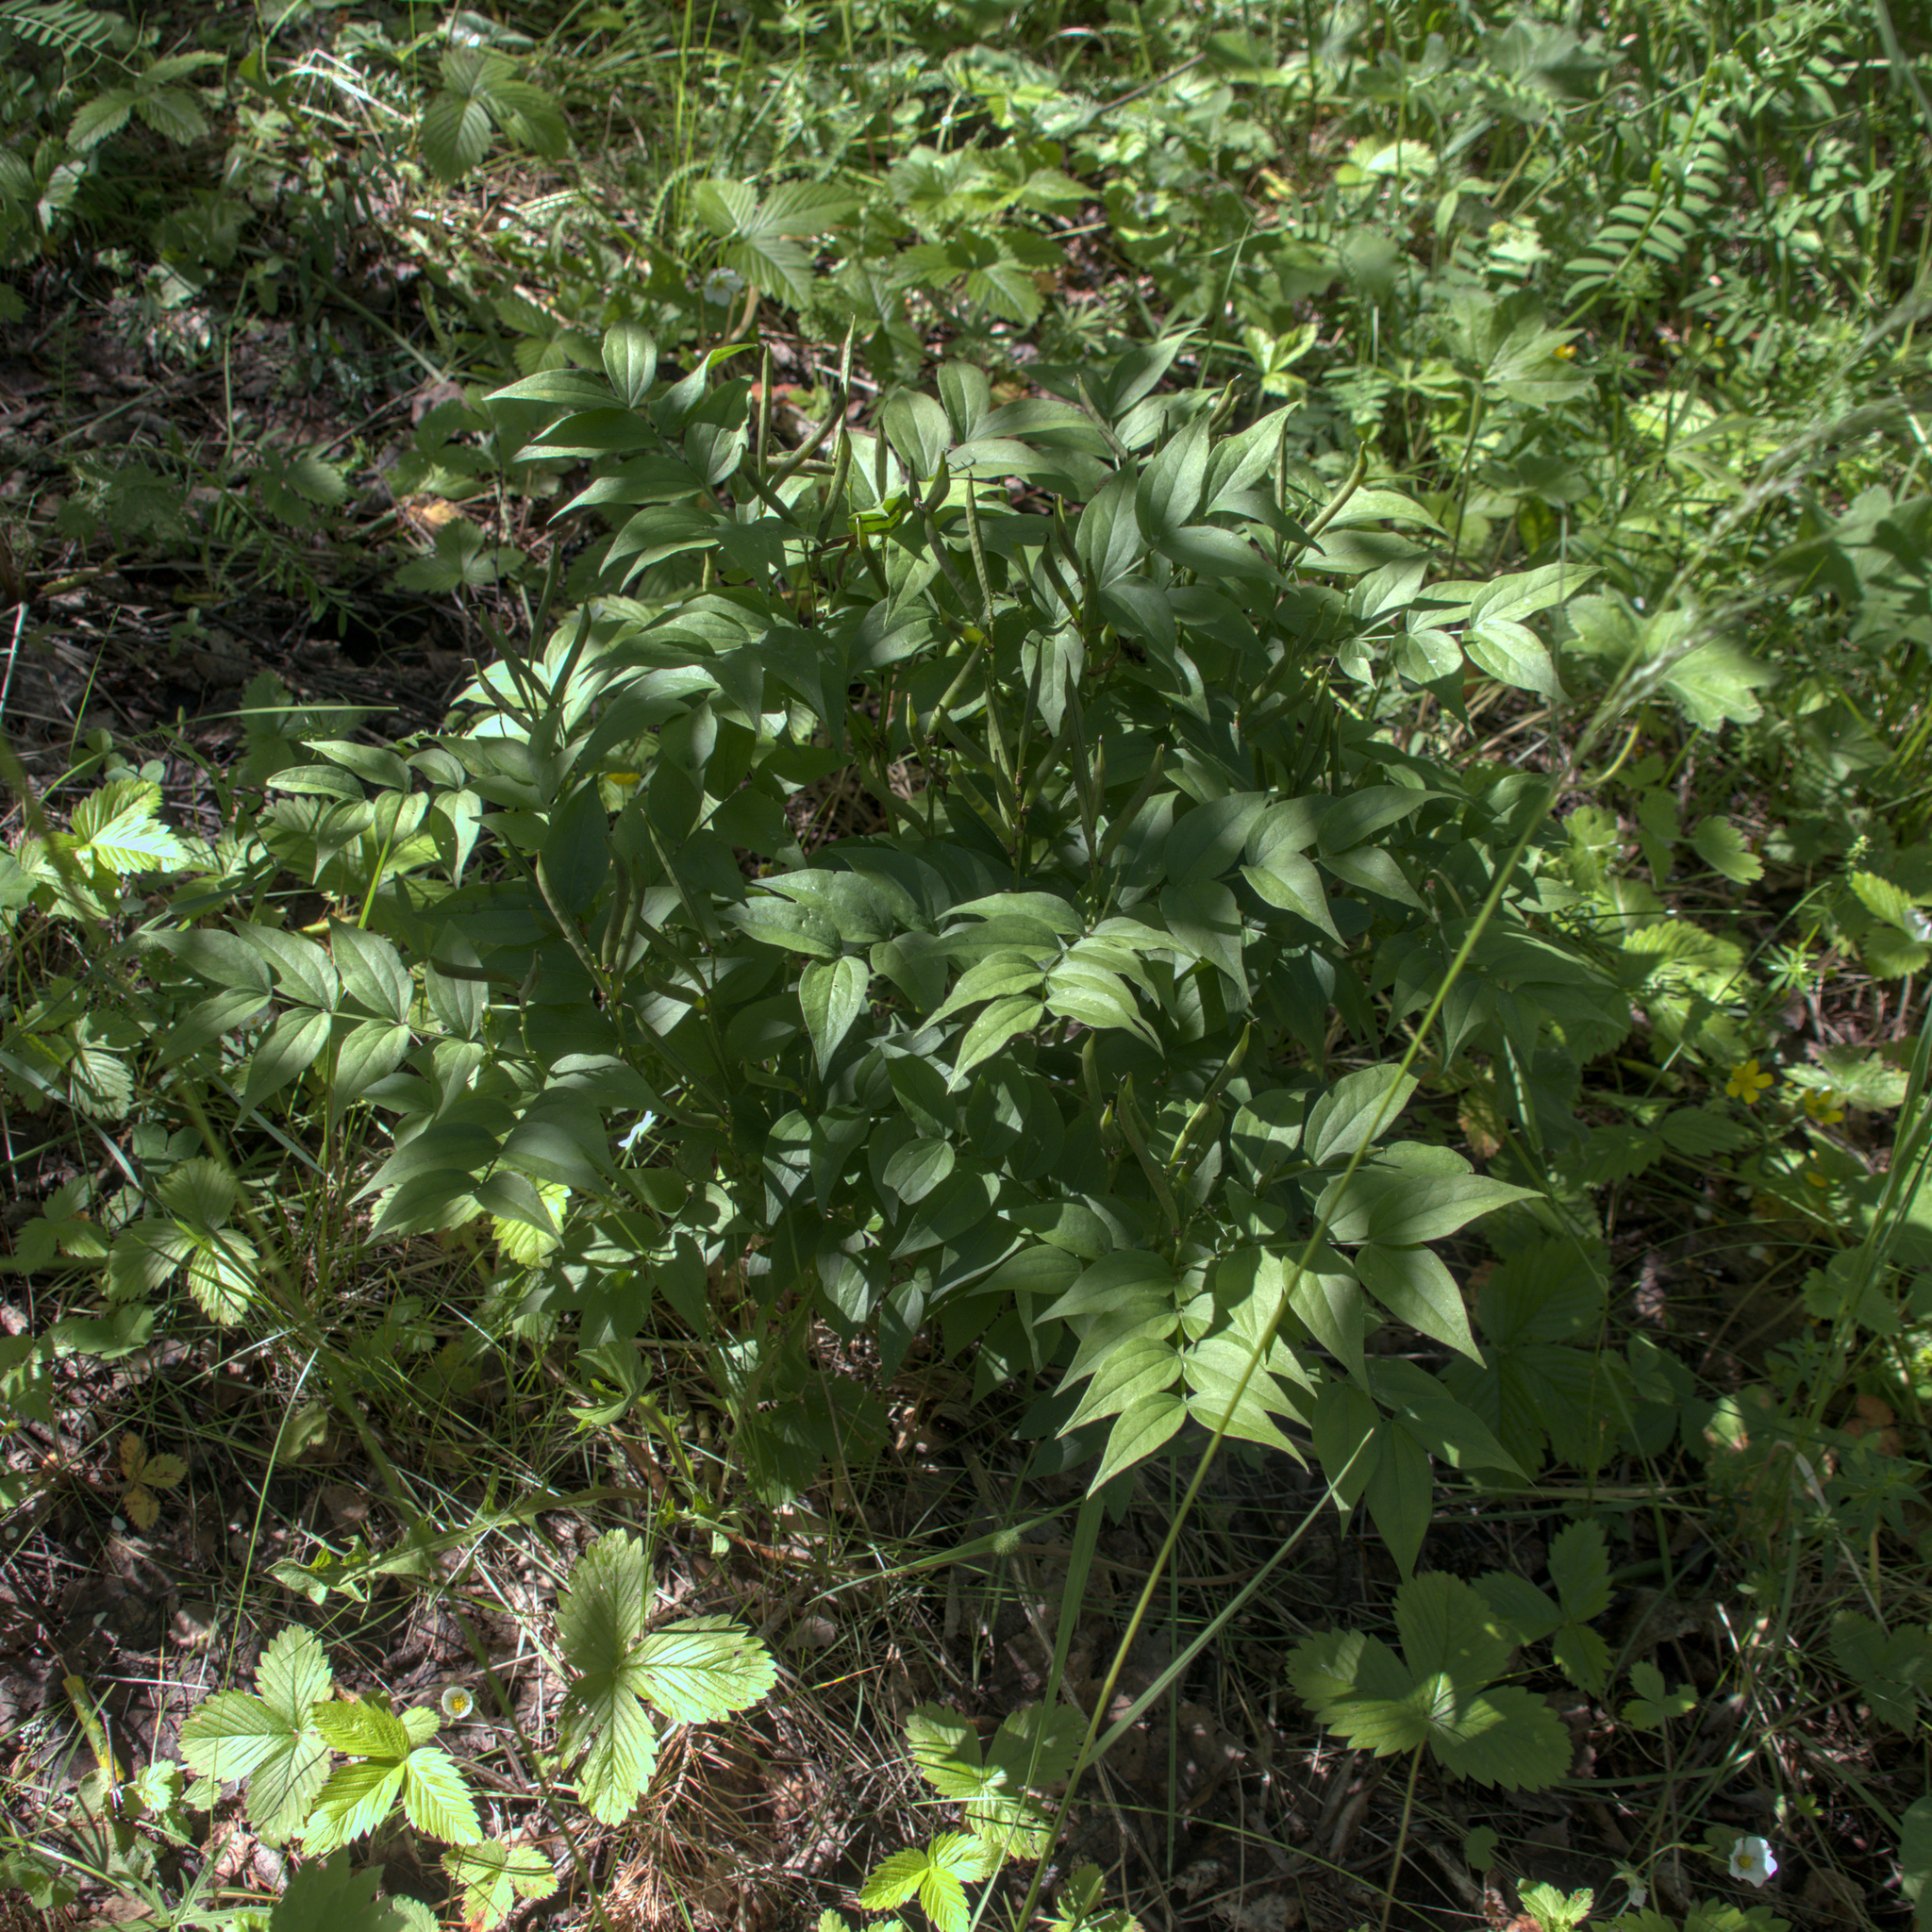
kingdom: Plantae
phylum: Tracheophyta
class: Magnoliopsida
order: Fabales
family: Fabaceae
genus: Lathyrus
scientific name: Lathyrus vernus
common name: Spring pea
